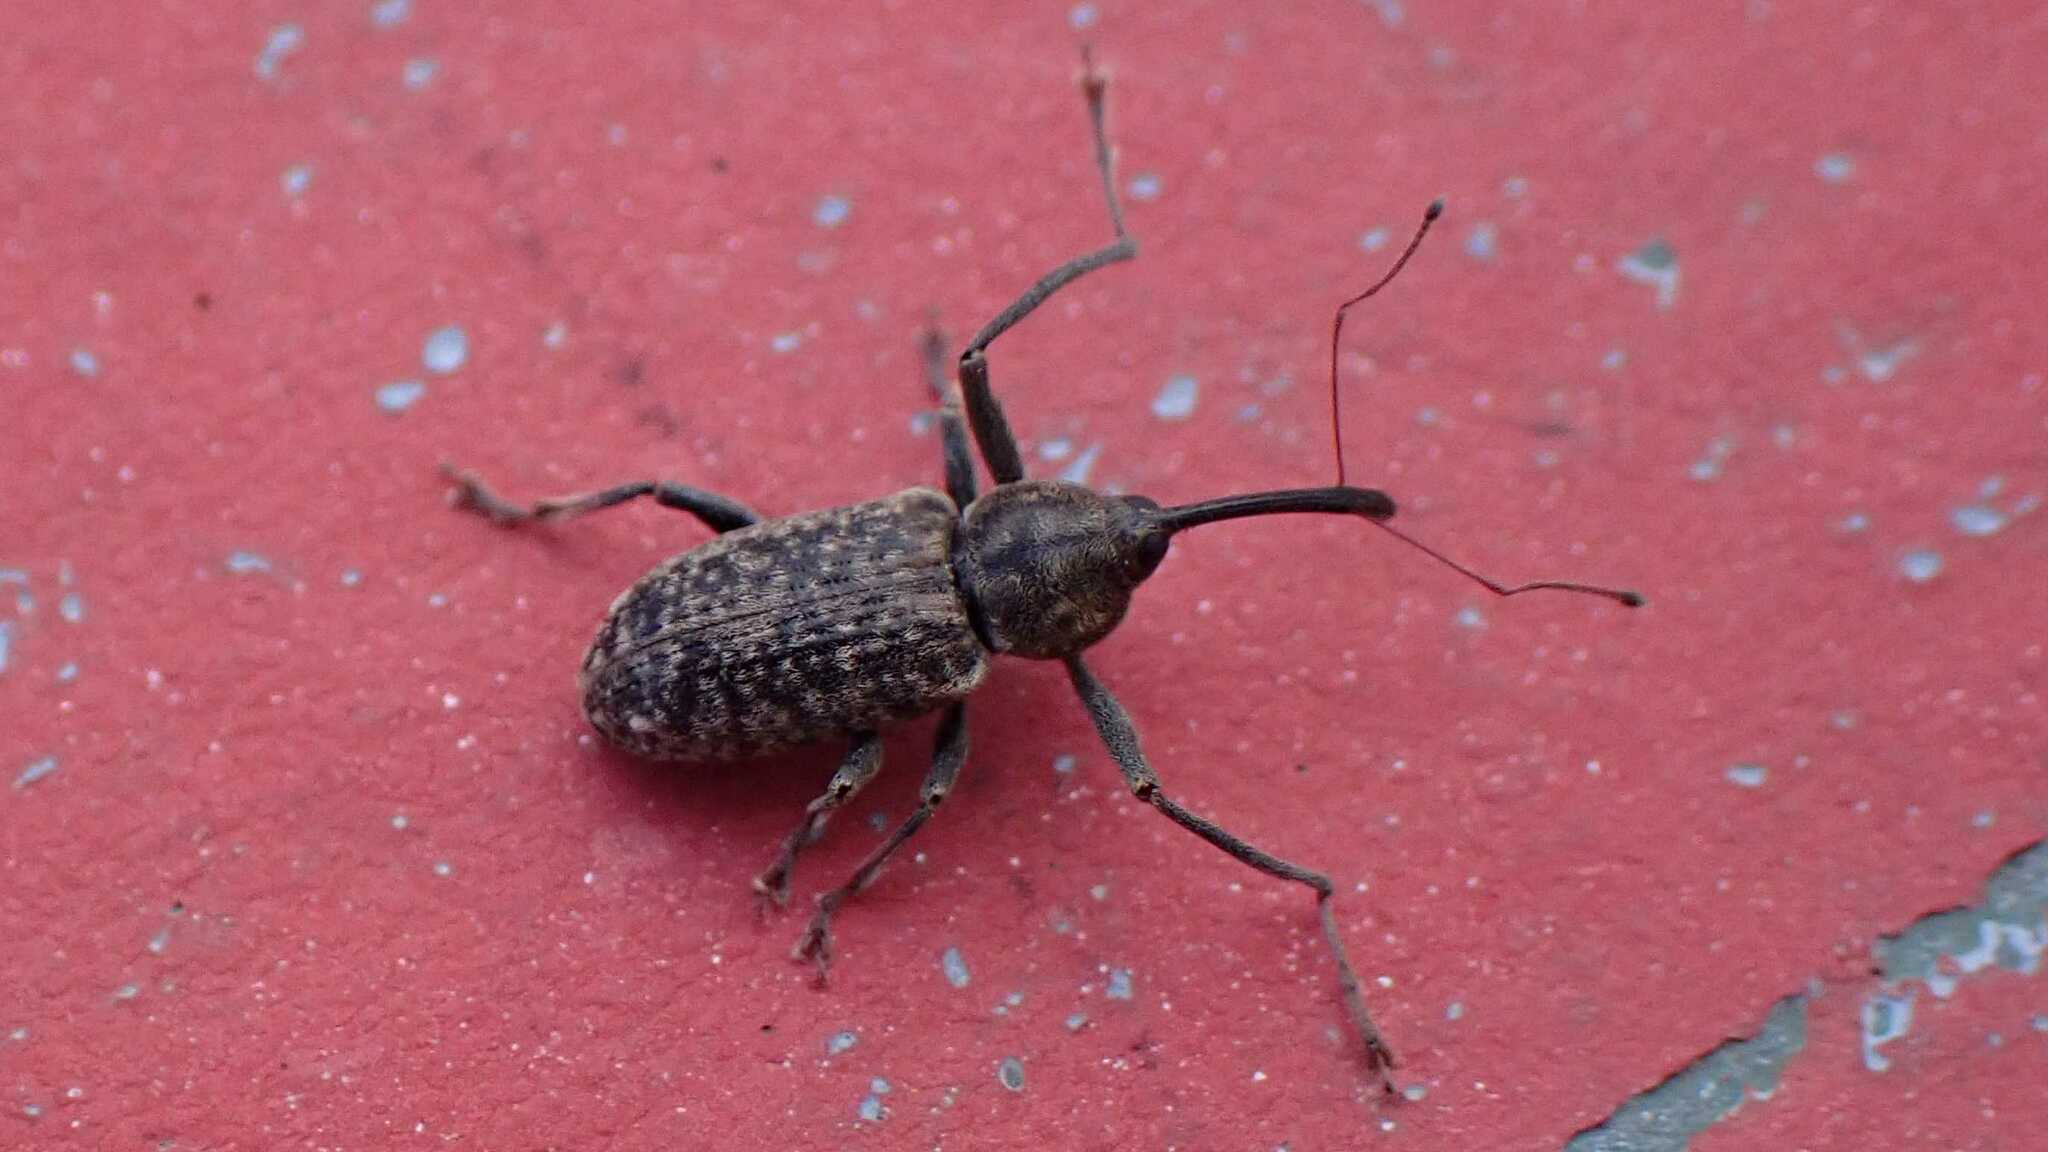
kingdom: Animalia
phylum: Arthropoda
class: Insecta
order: Coleoptera
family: Curculionidae
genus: Dorytomus
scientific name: Dorytomus longimanus
